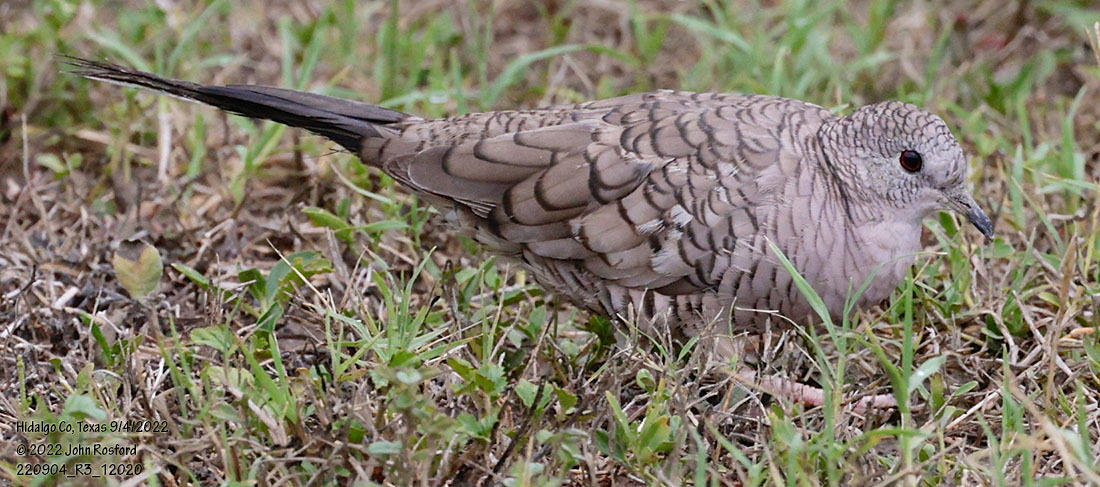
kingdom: Animalia
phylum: Chordata
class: Aves
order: Columbiformes
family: Columbidae
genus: Columbina
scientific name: Columbina inca
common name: Inca dove
